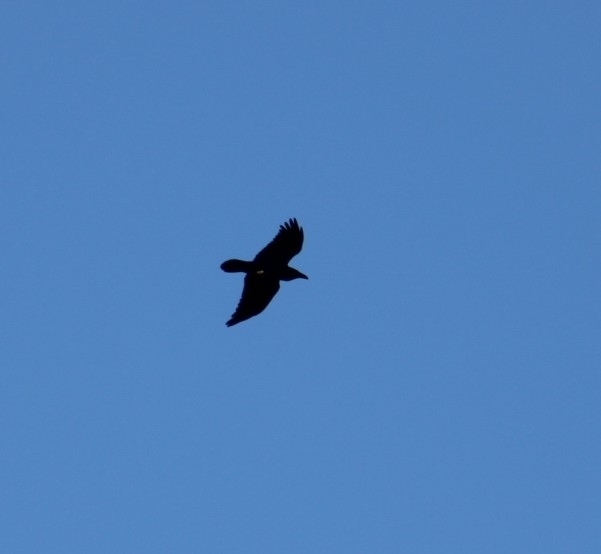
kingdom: Animalia
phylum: Chordata
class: Aves
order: Passeriformes
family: Corvidae
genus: Corvus
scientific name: Corvus corax
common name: Common raven
